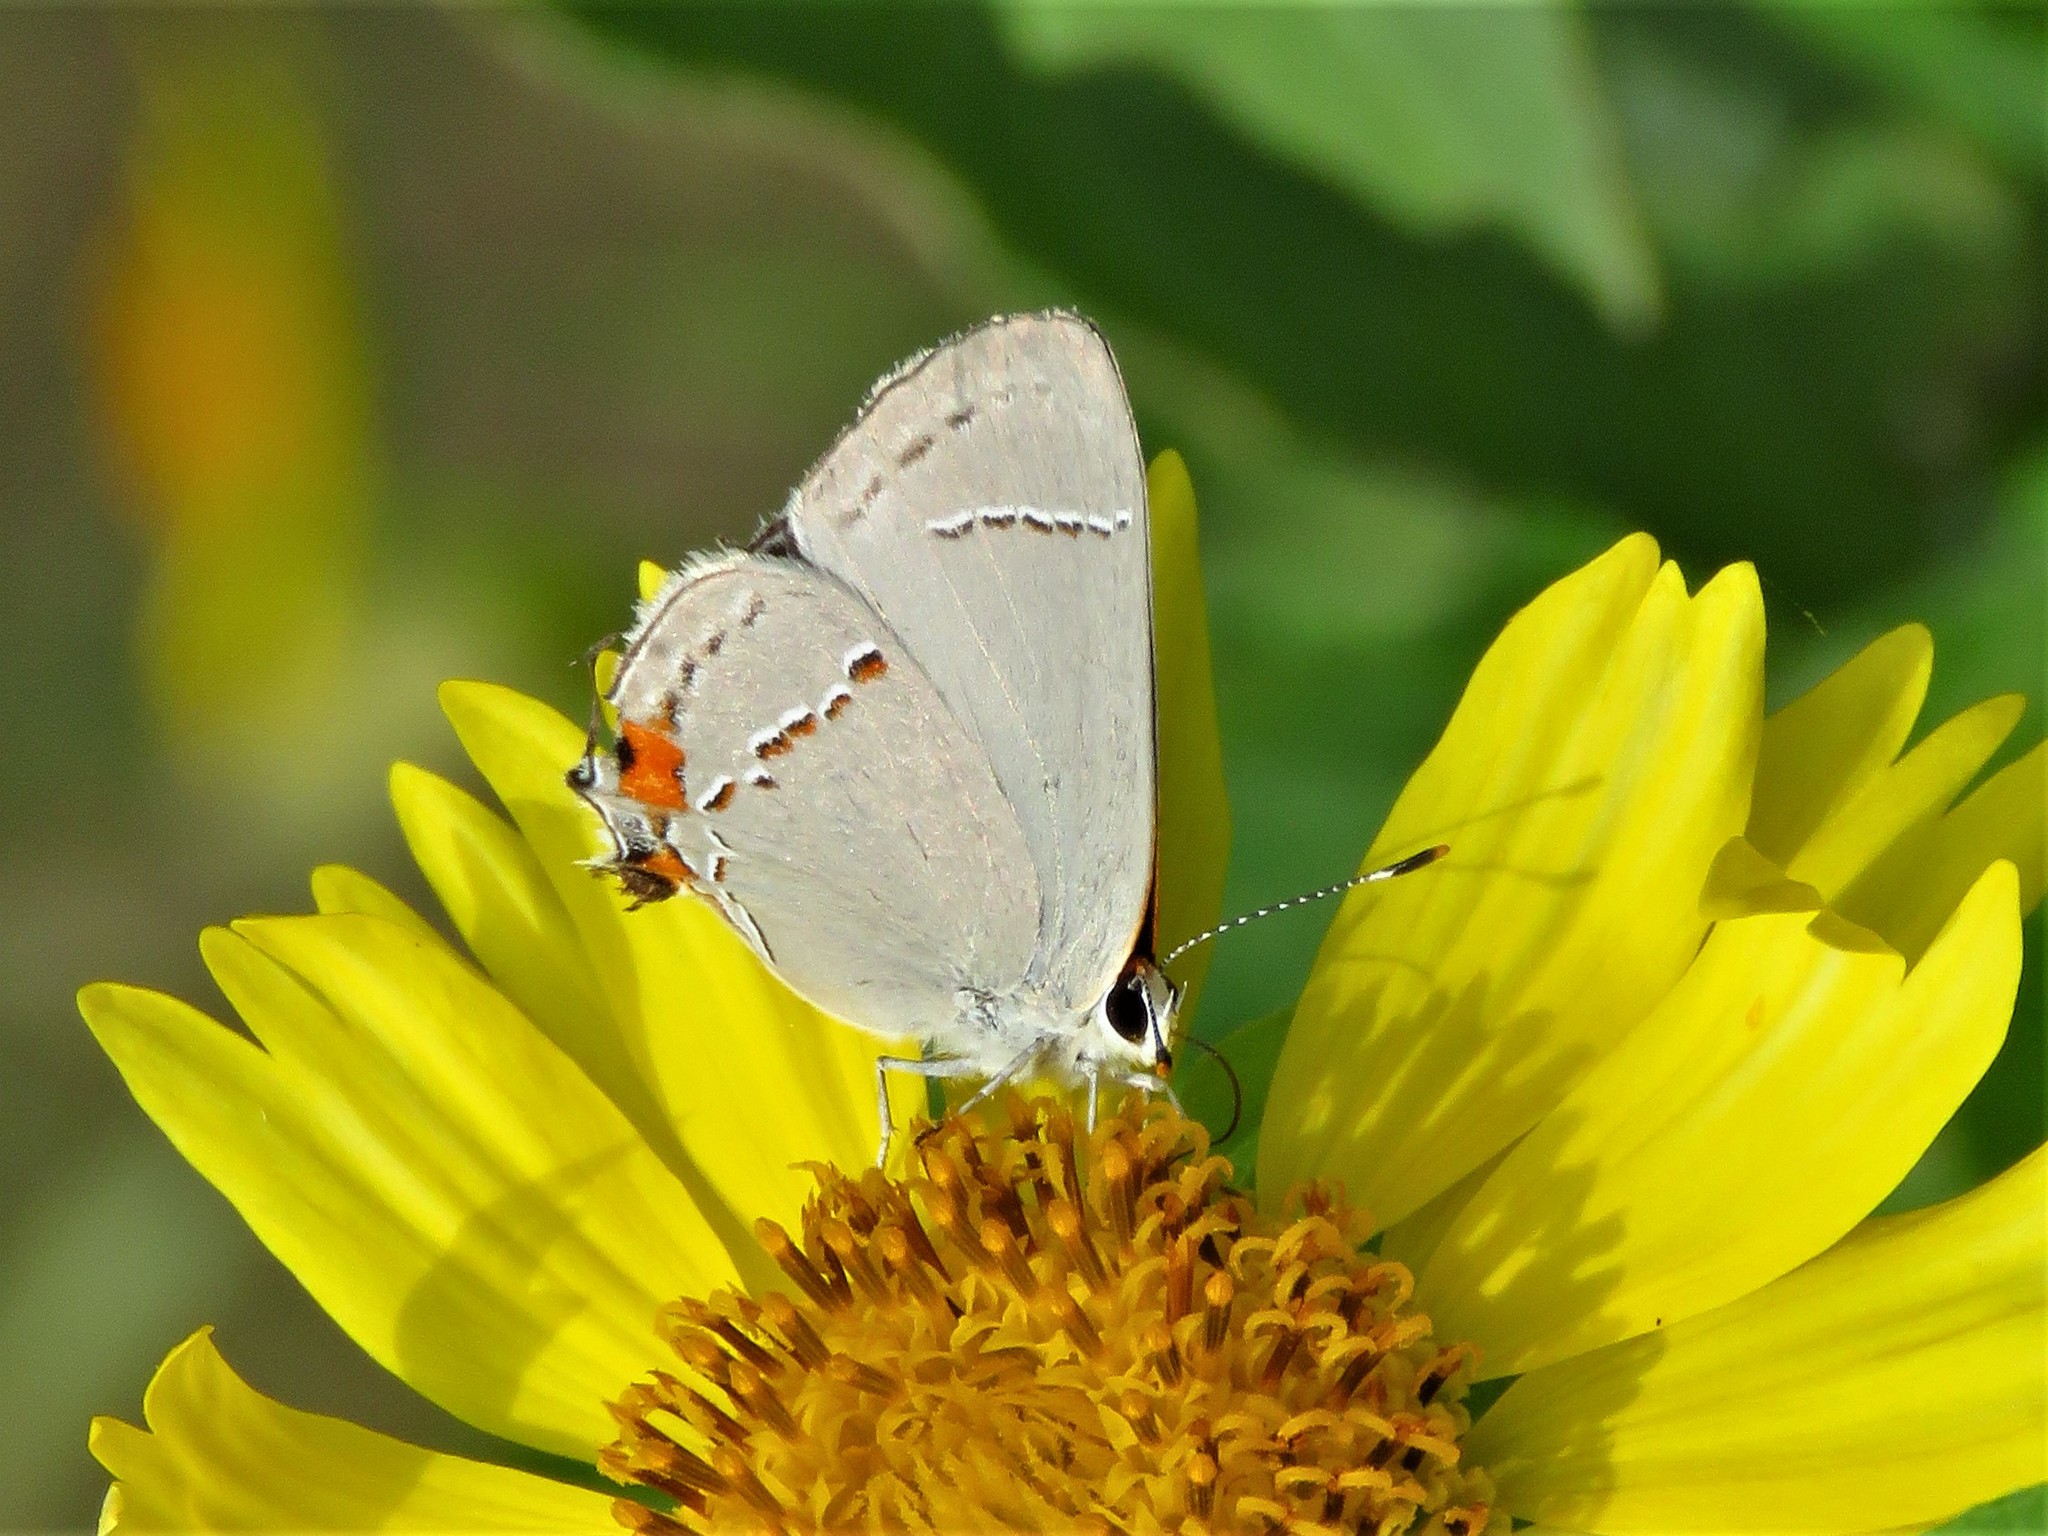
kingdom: Animalia
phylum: Arthropoda
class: Insecta
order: Lepidoptera
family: Lycaenidae
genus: Strymon
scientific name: Strymon melinus
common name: Gray hairstreak
